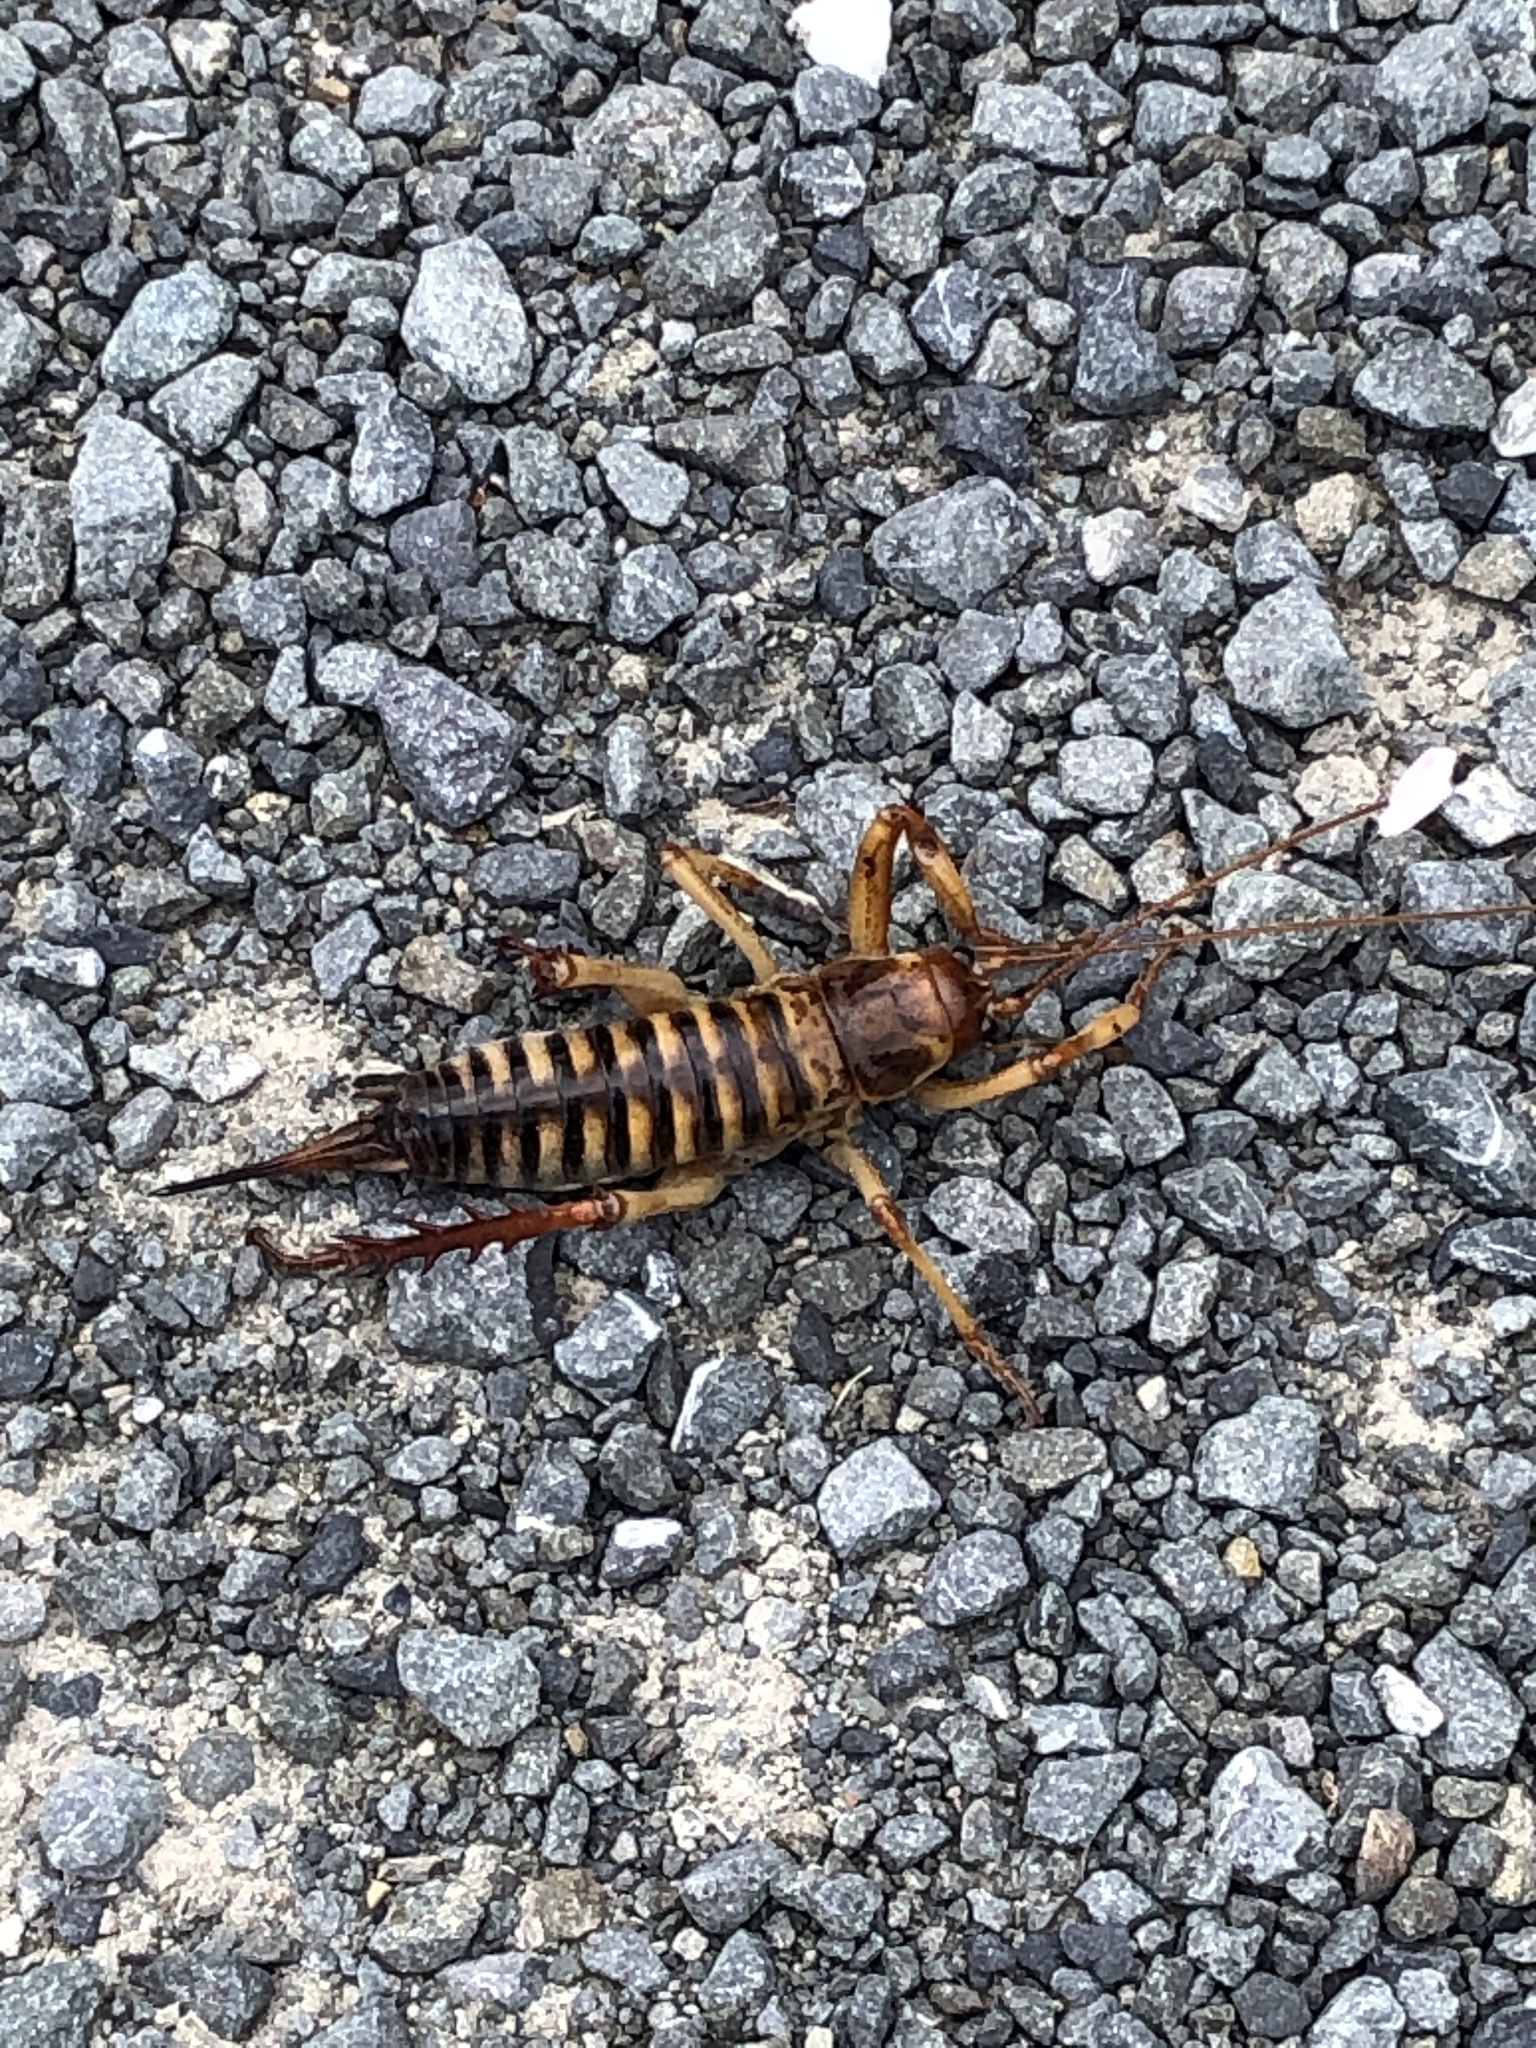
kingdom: Animalia
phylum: Arthropoda
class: Insecta
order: Orthoptera
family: Anostostomatidae
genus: Hemideina
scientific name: Hemideina crassidens
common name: Wellington tree weta
